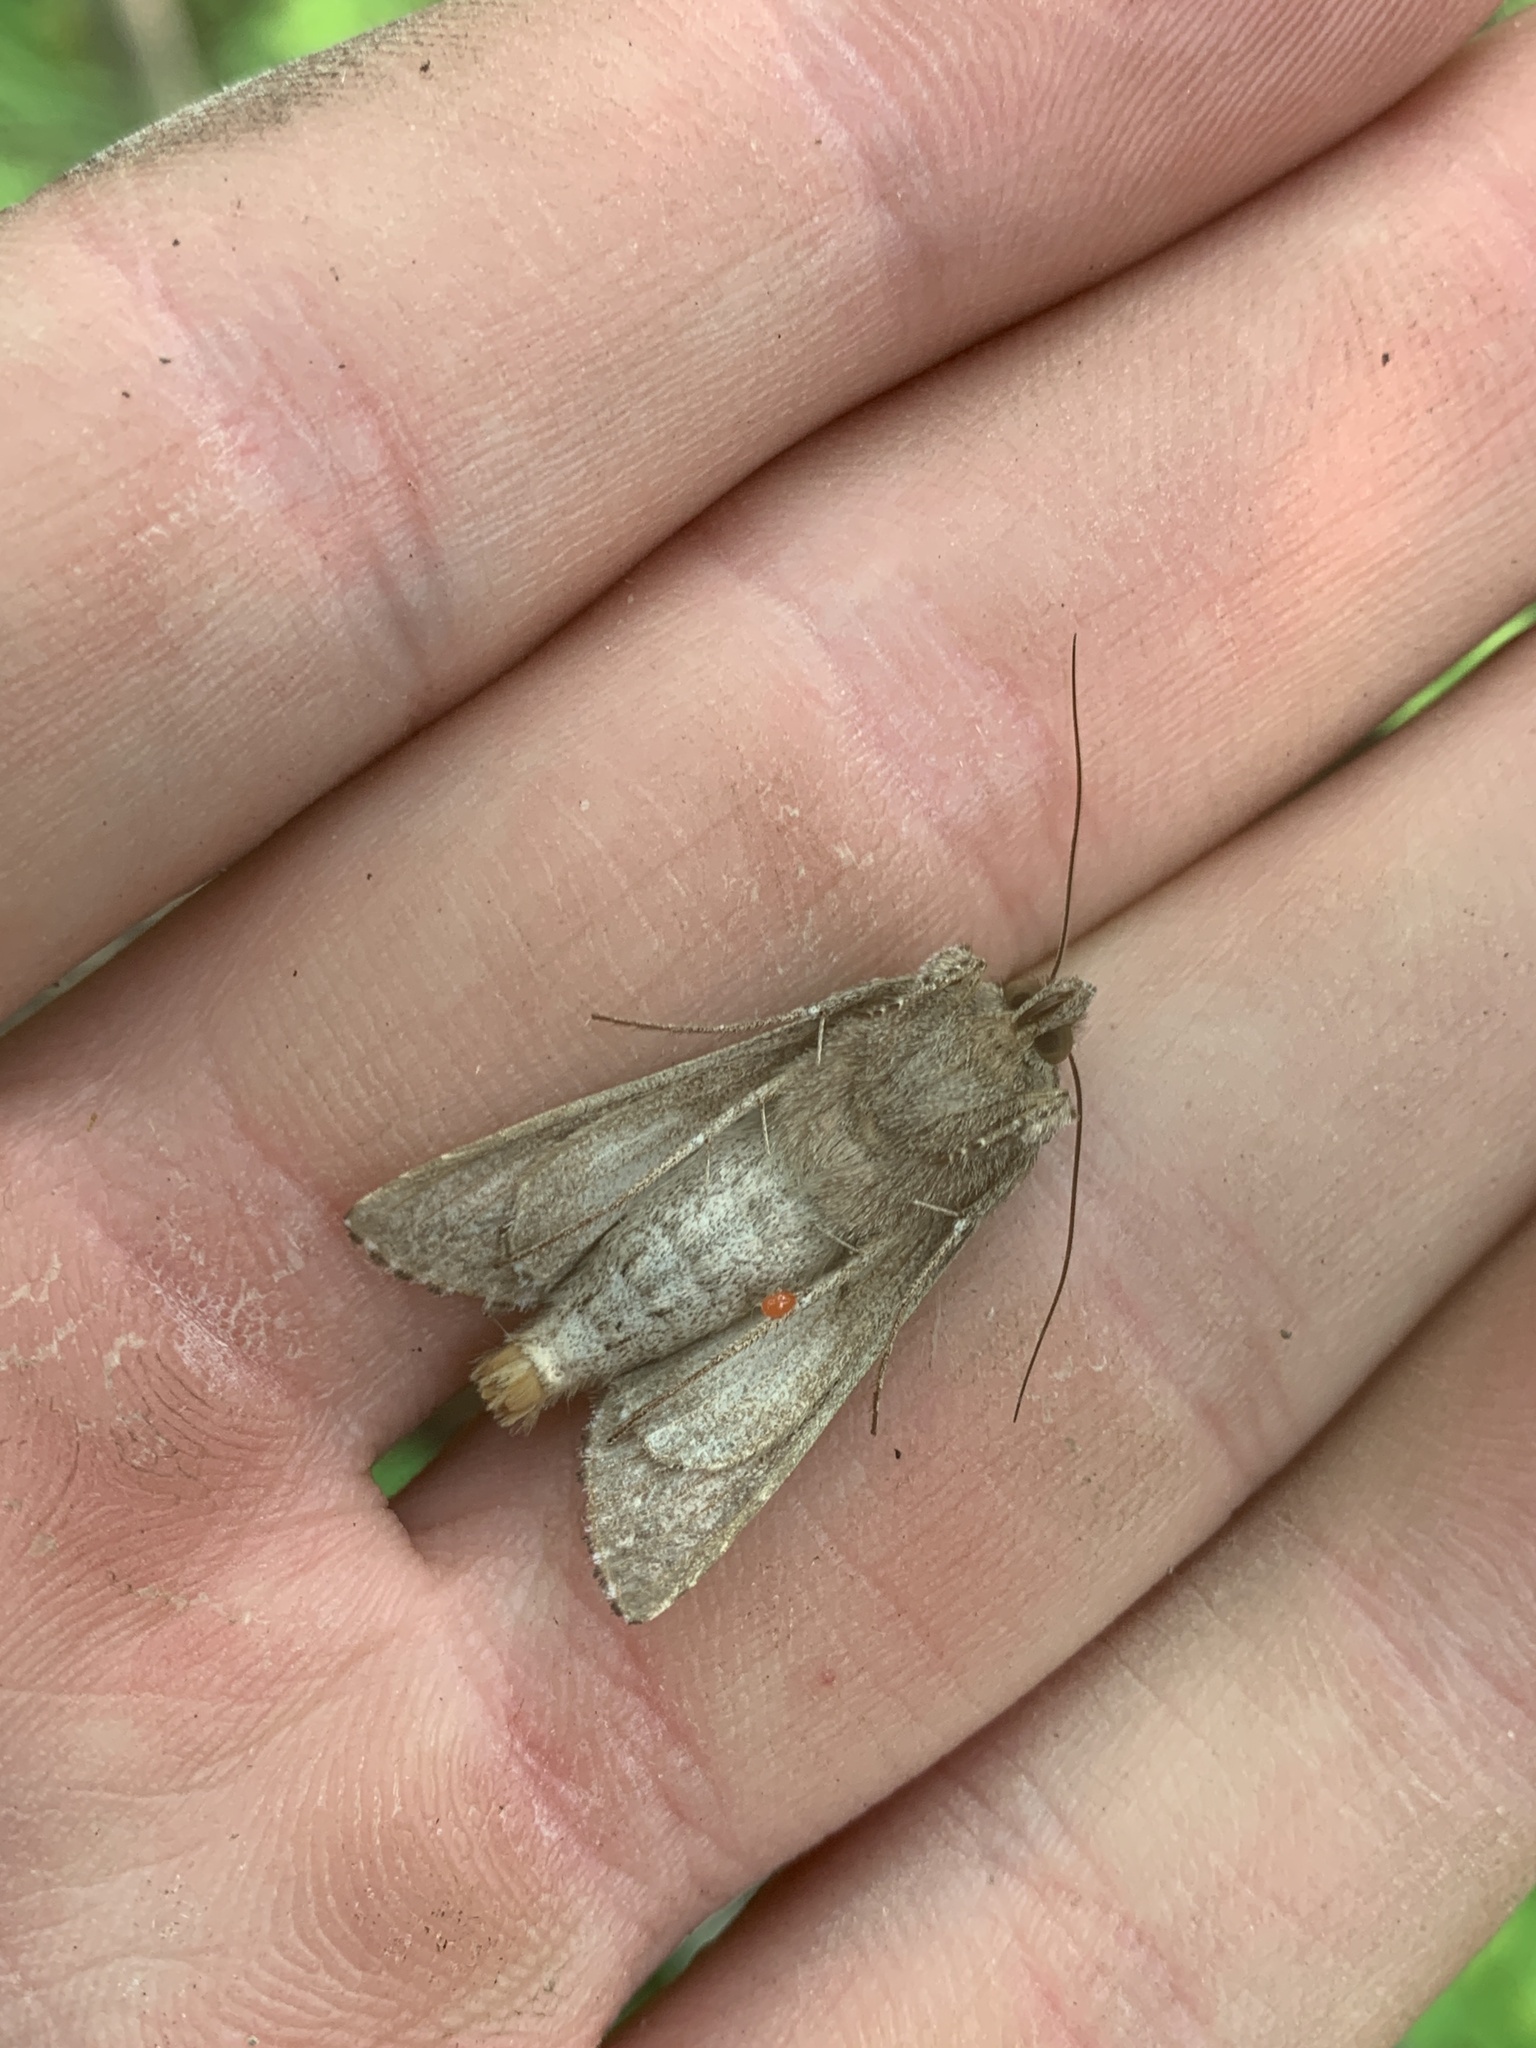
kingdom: Animalia
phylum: Arthropoda
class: Insecta
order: Lepidoptera
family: Noctuidae
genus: Autographa
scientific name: Autographa californica
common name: Alfalfa looper
